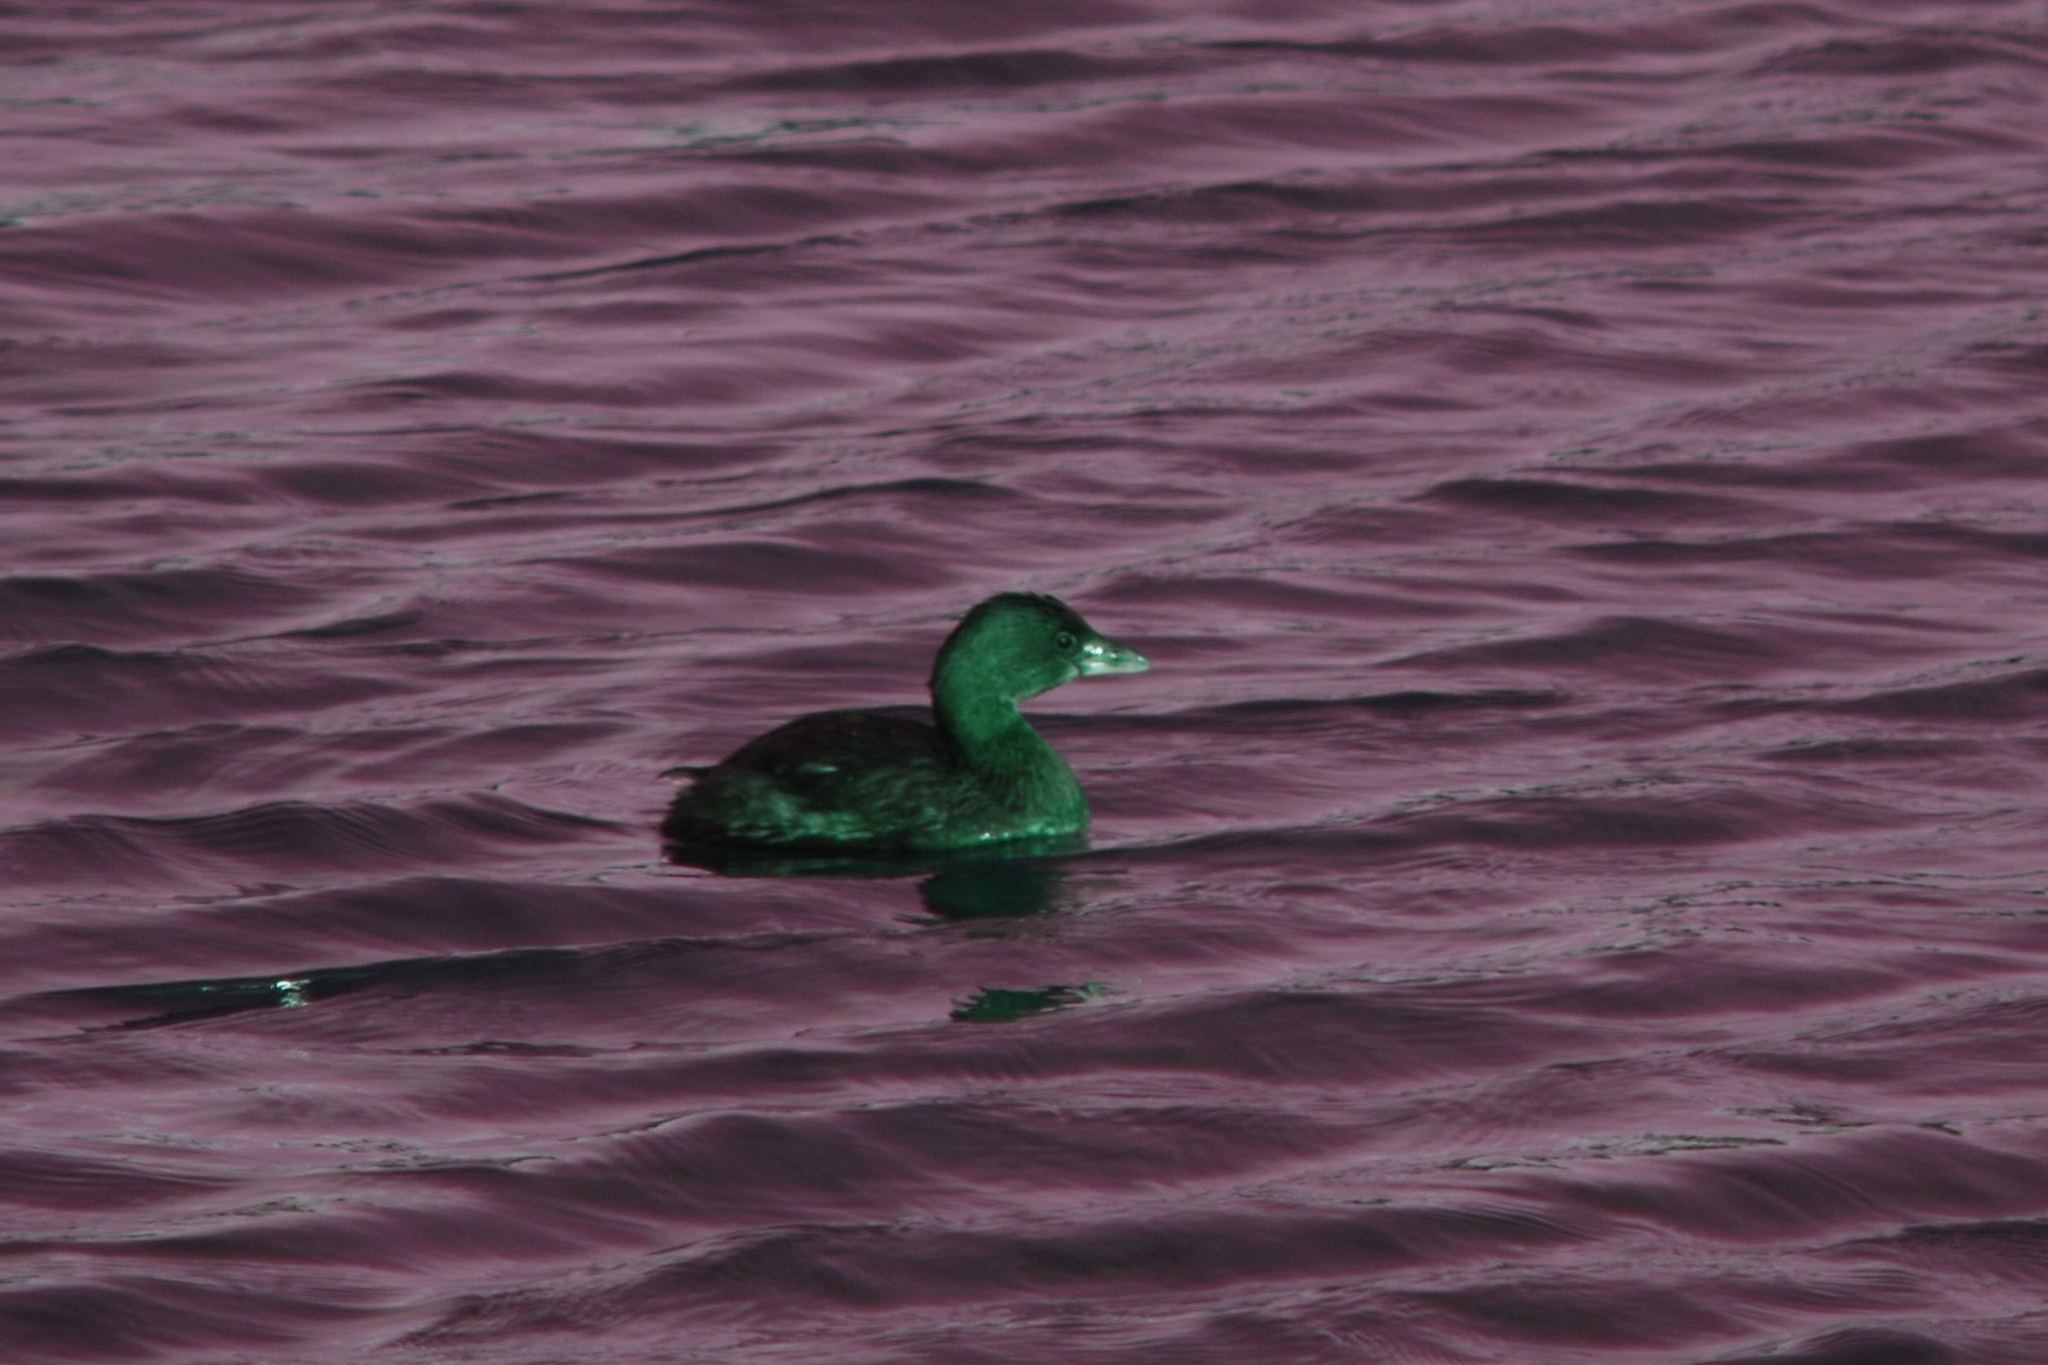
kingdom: Animalia
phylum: Chordata
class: Aves
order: Podicipediformes
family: Podicipedidae
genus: Podilymbus
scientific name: Podilymbus podiceps
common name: Pied-billed grebe
